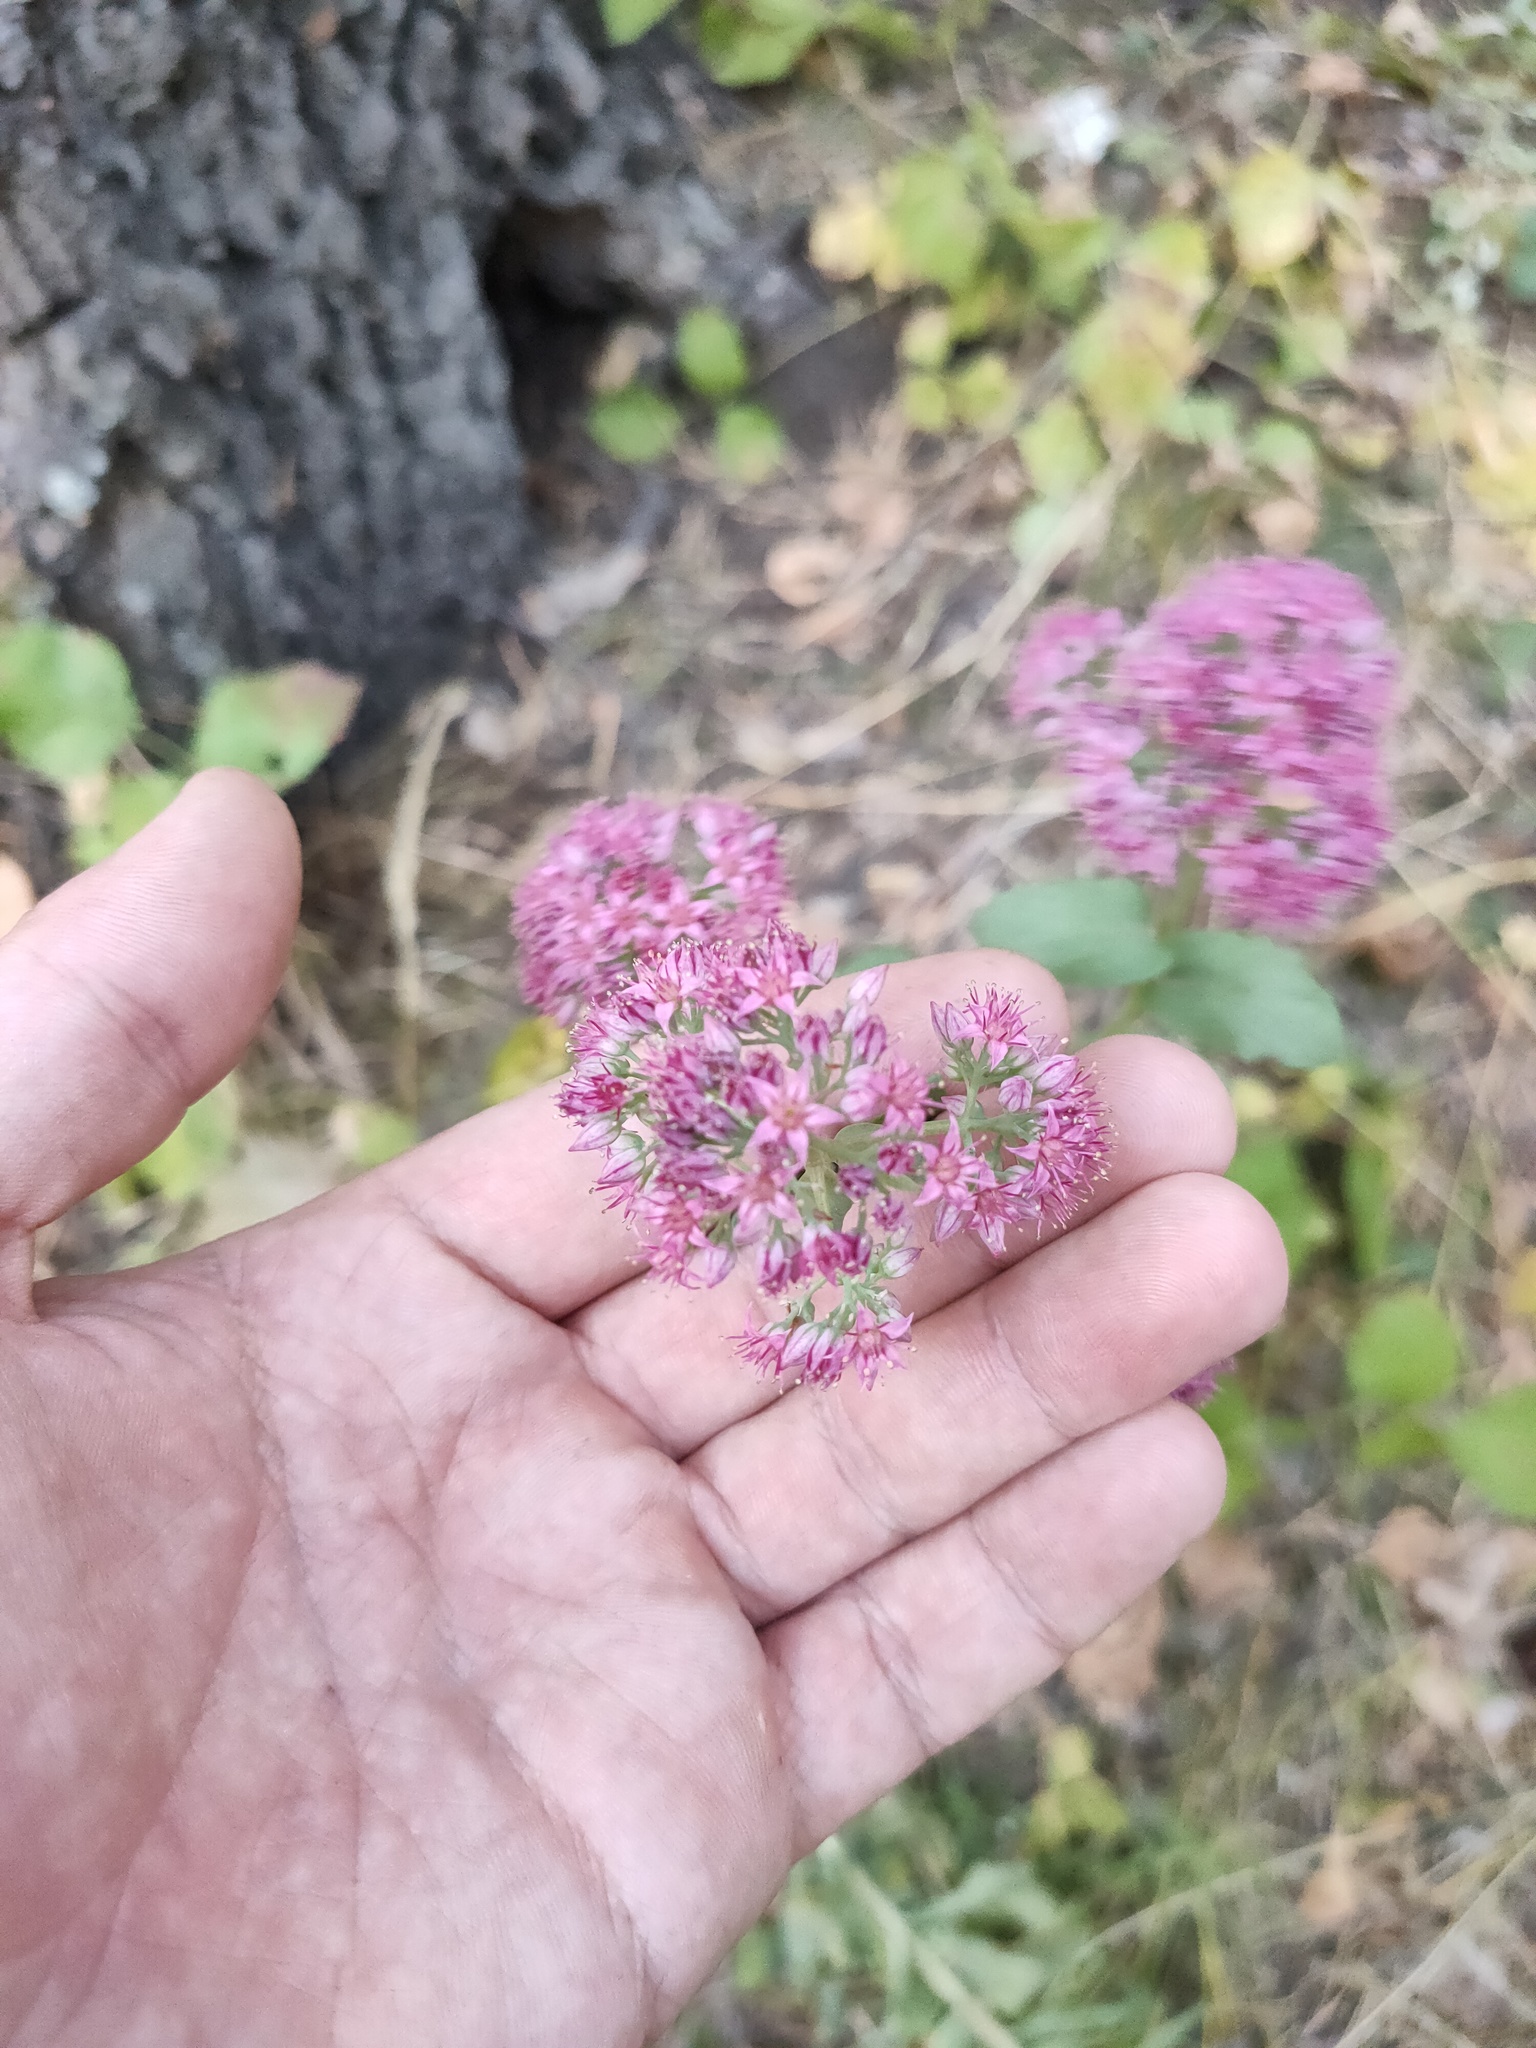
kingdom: Plantae
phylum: Tracheophyta
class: Magnoliopsida
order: Saxifragales
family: Crassulaceae
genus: Hylotelephium
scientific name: Hylotelephium telephium
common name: Live-forever
